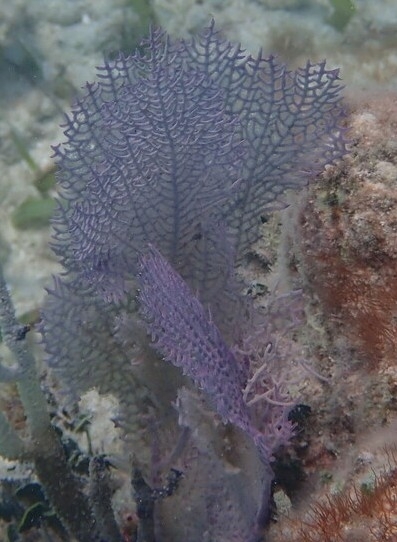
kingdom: Animalia
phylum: Cnidaria
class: Anthozoa
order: Malacalcyonacea
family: Gorgoniidae
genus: Gorgonia
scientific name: Gorgonia ventalina
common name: Common sea fan
